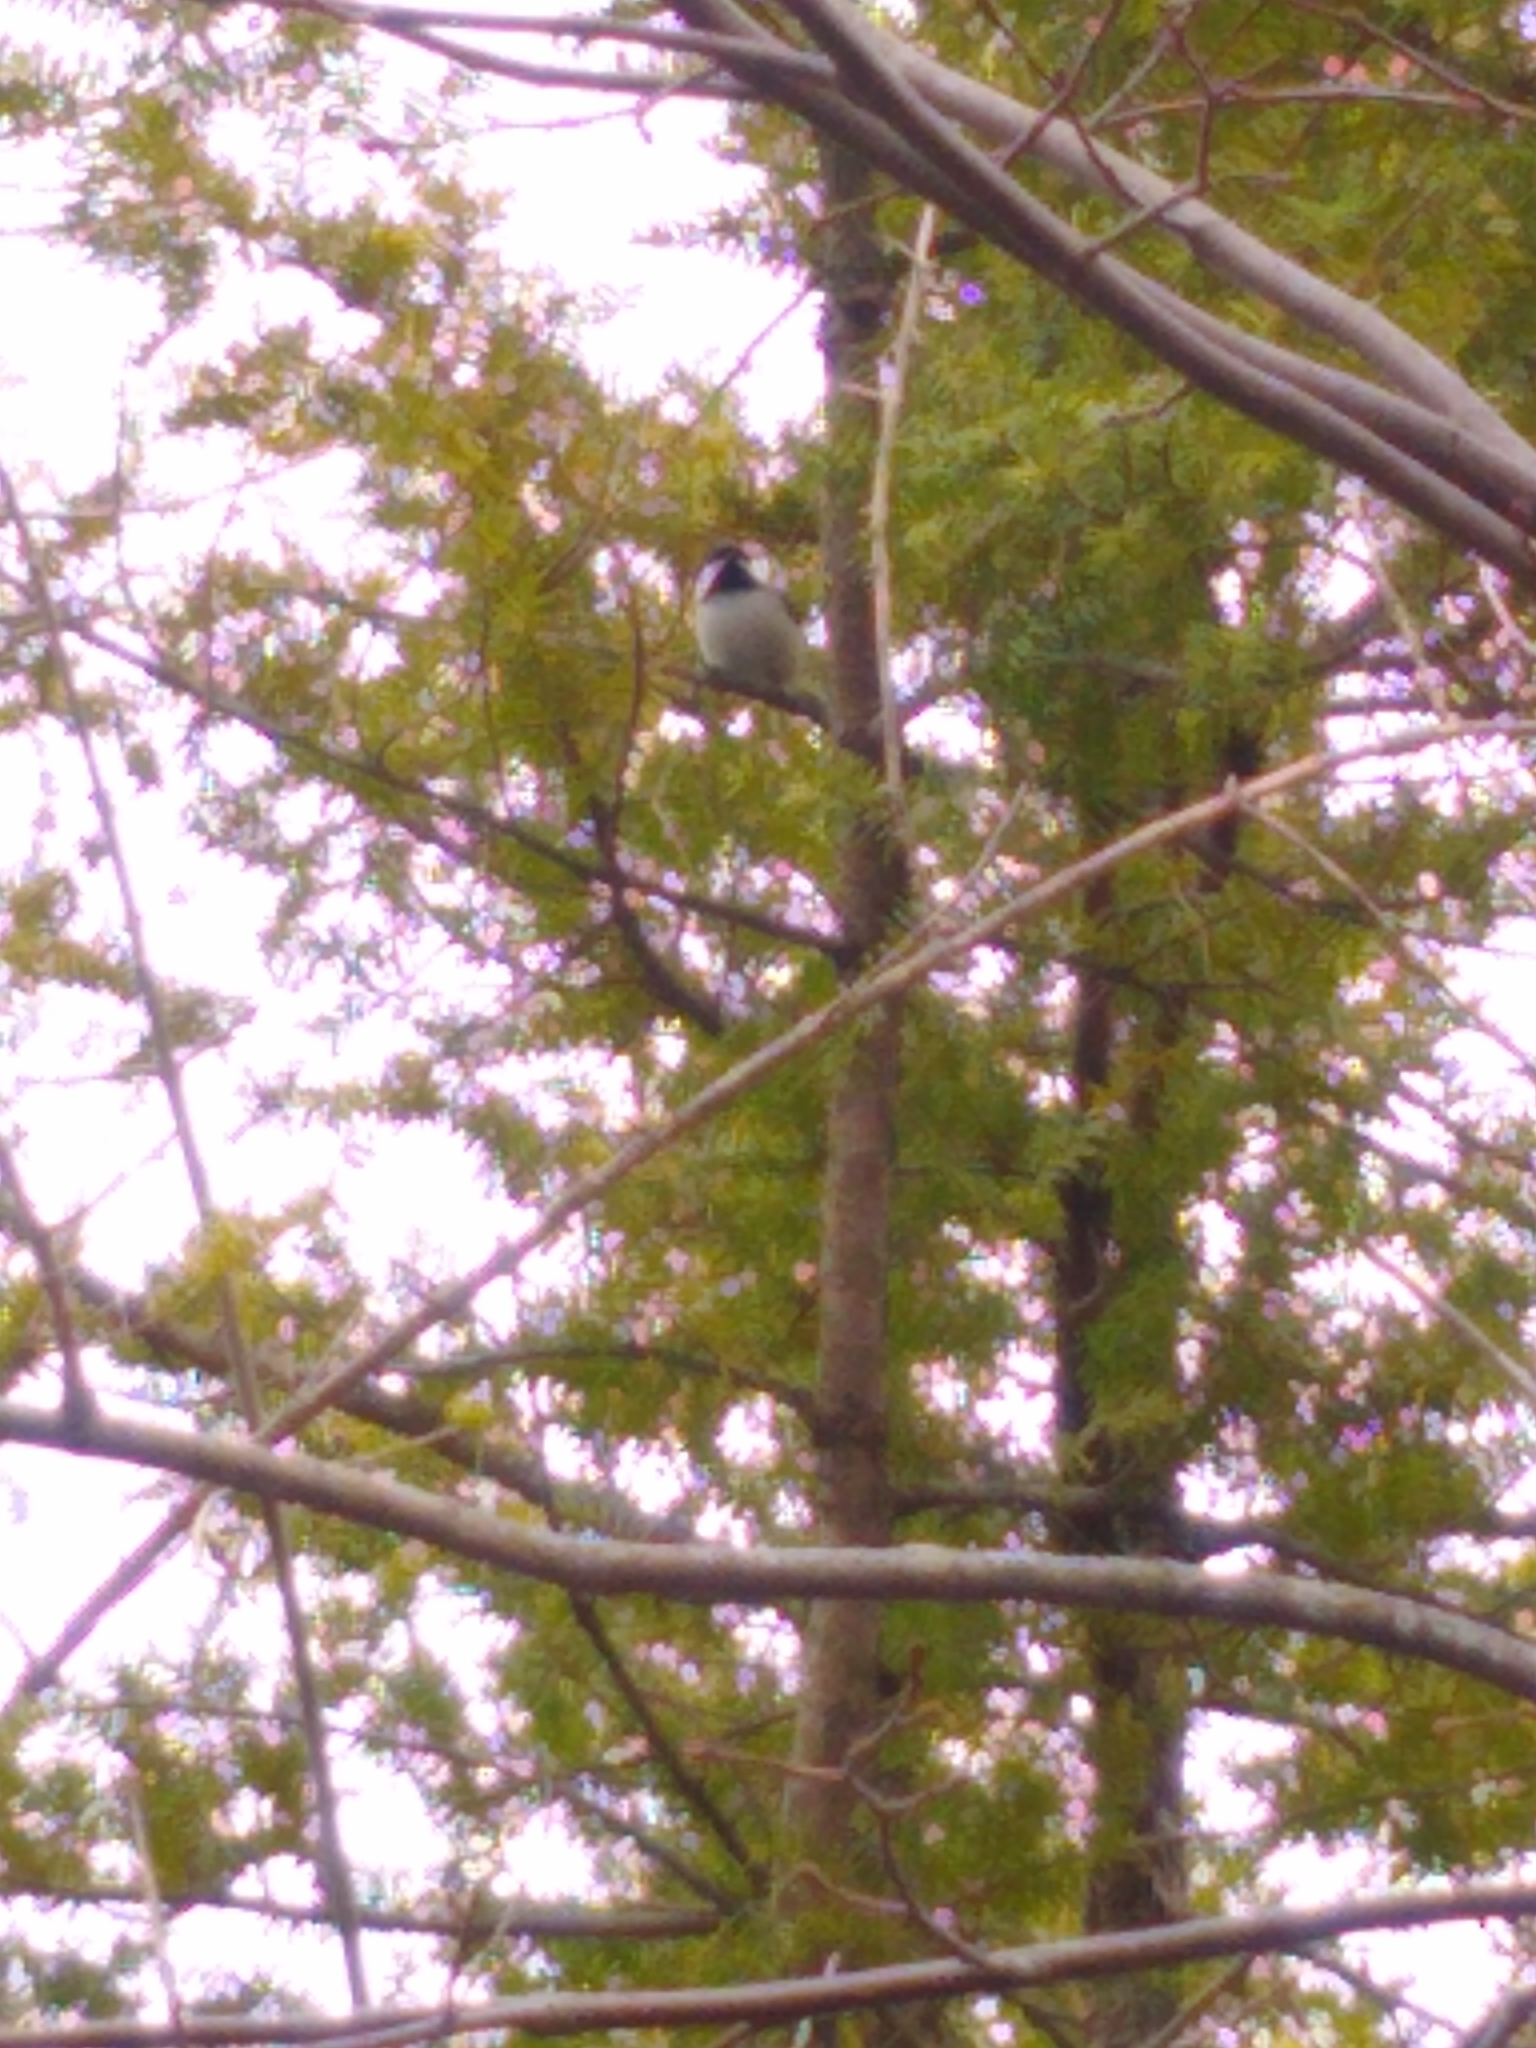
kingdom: Animalia
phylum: Chordata
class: Aves
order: Passeriformes
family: Paridae
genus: Poecile
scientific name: Poecile atricapillus
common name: Black-capped chickadee
